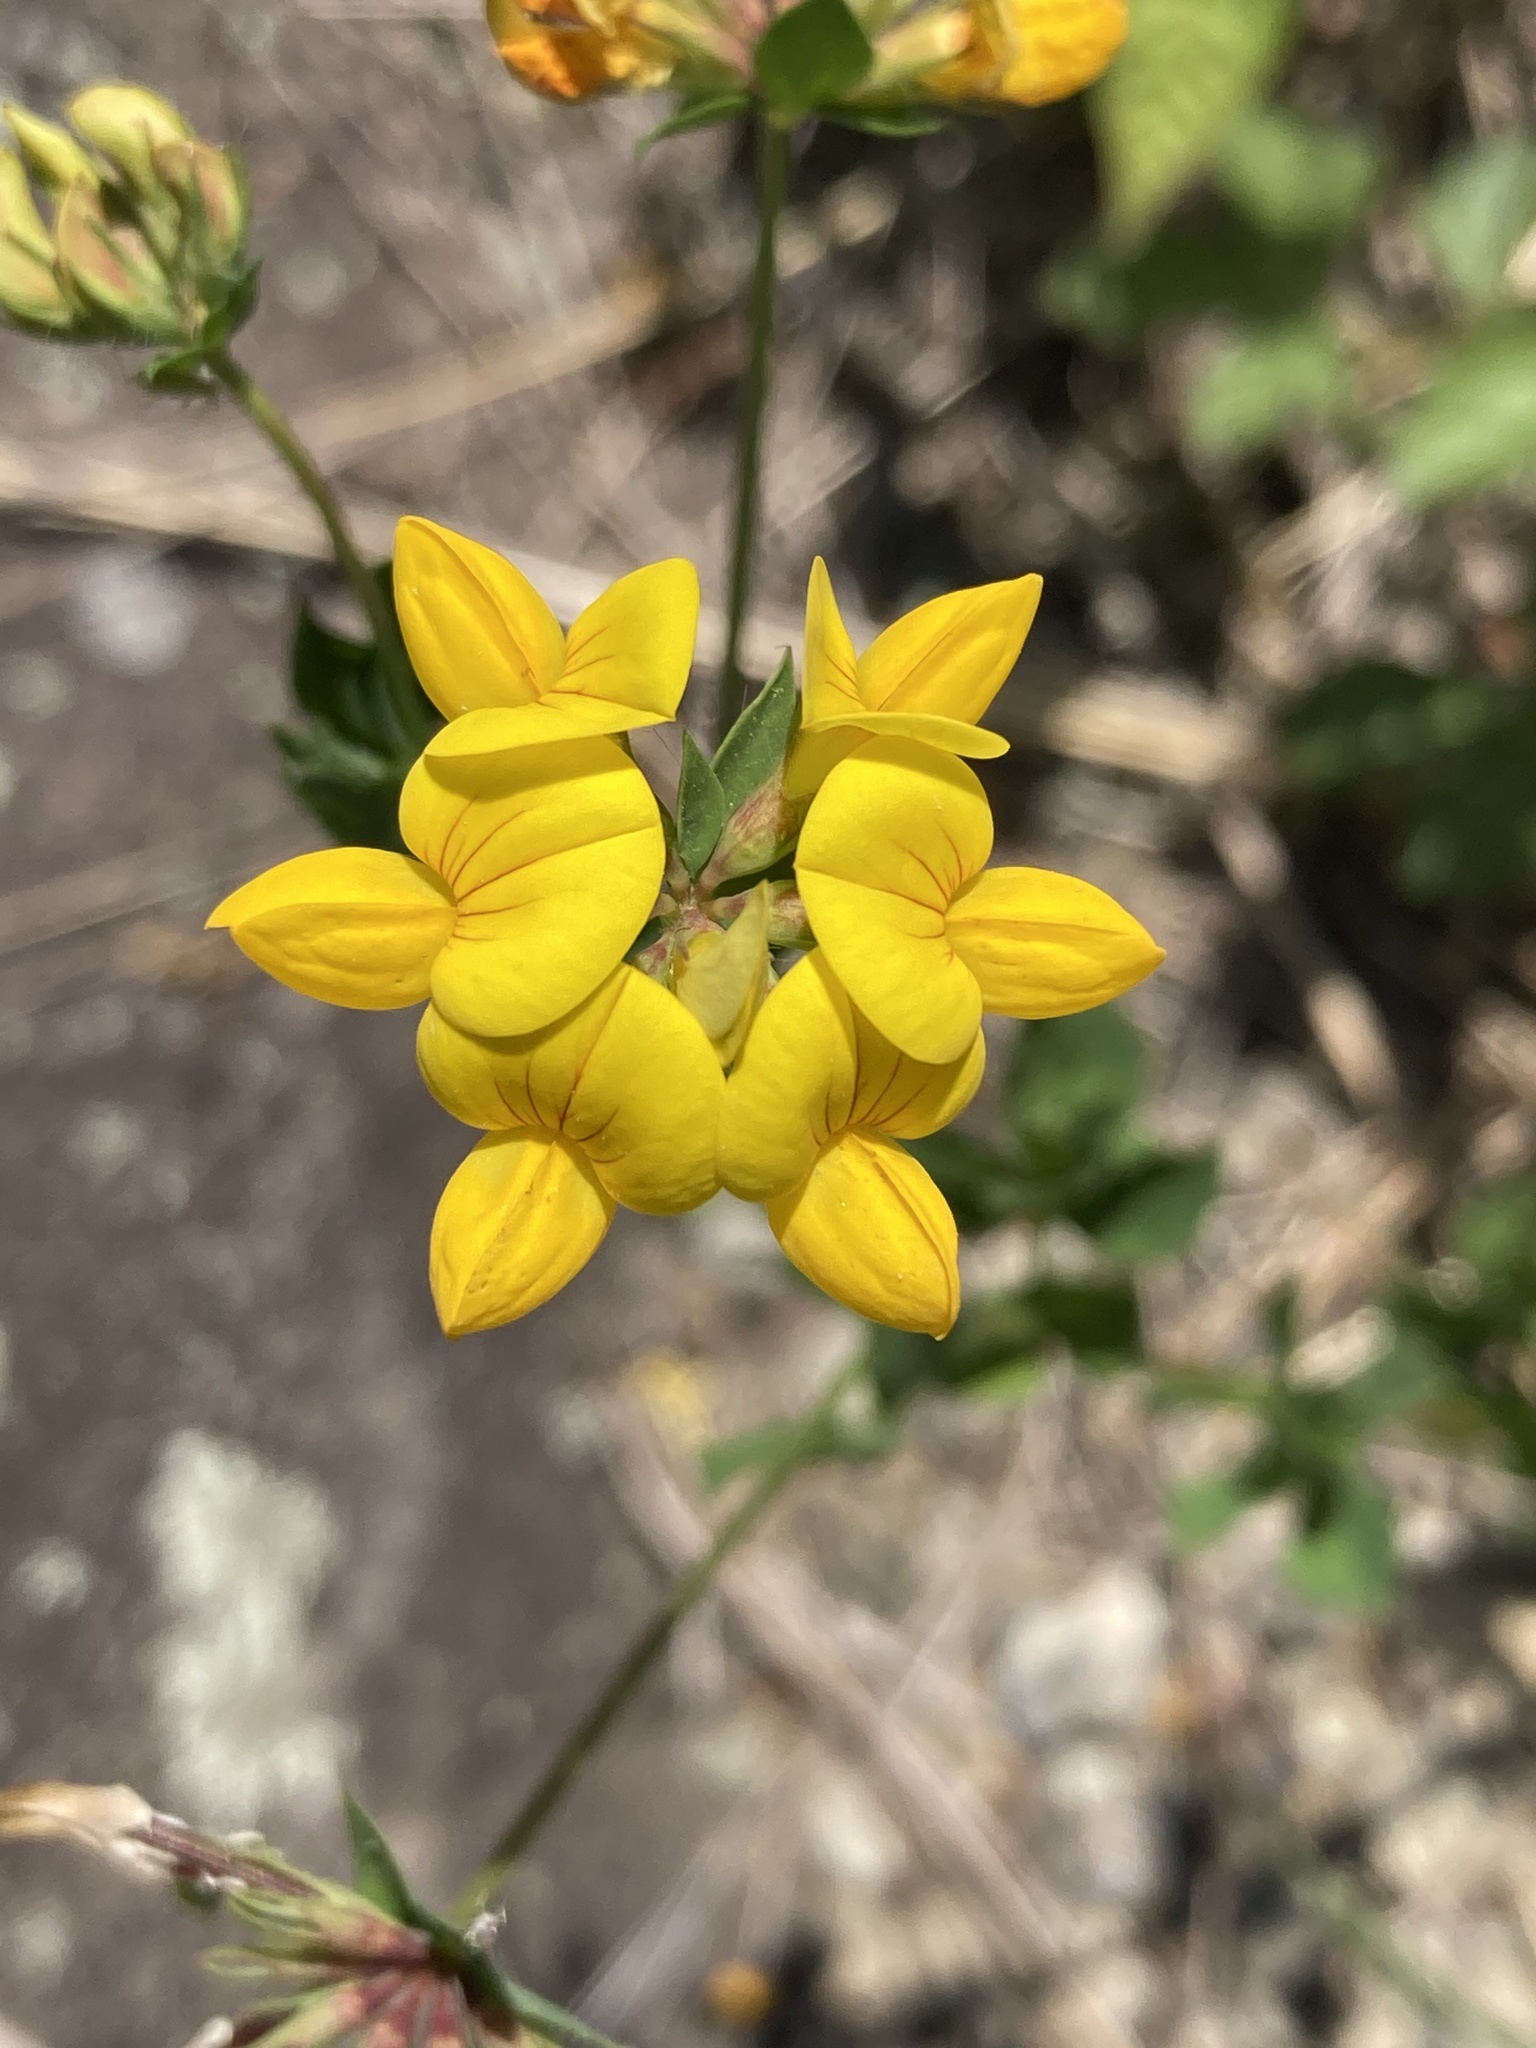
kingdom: Plantae
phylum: Tracheophyta
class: Magnoliopsida
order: Fabales
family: Fabaceae
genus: Lotus
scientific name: Lotus corniculatus
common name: Common bird's-foot-trefoil
